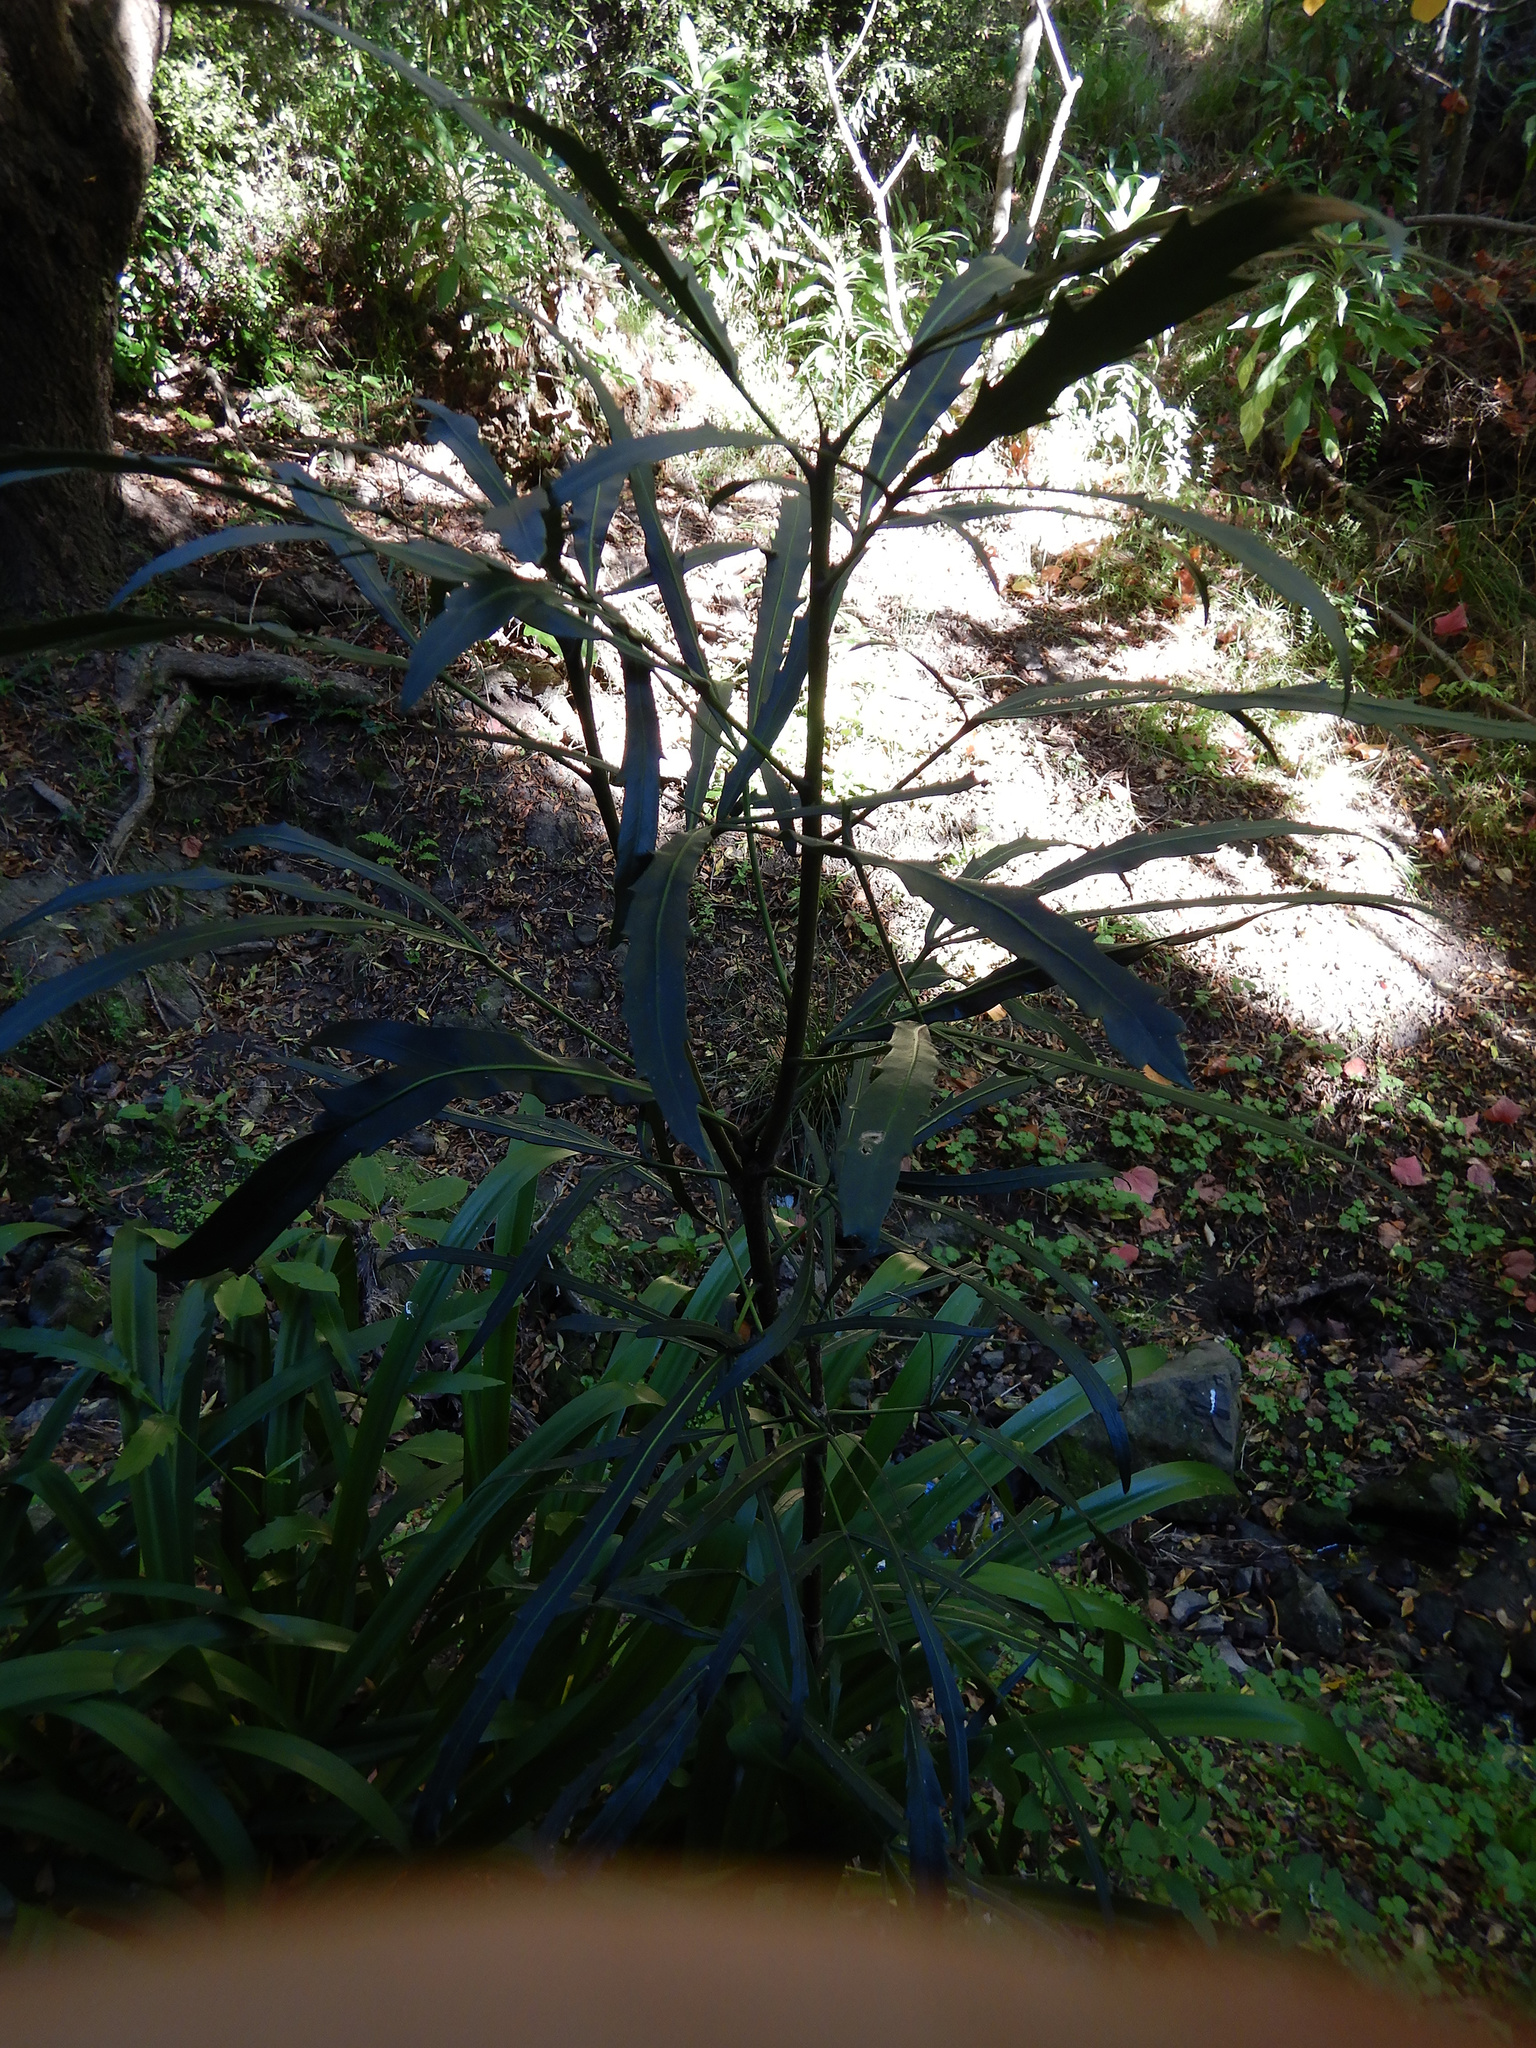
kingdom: Plantae
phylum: Tracheophyta
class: Magnoliopsida
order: Apiales
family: Araliaceae
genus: Pseudopanax
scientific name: Pseudopanax
